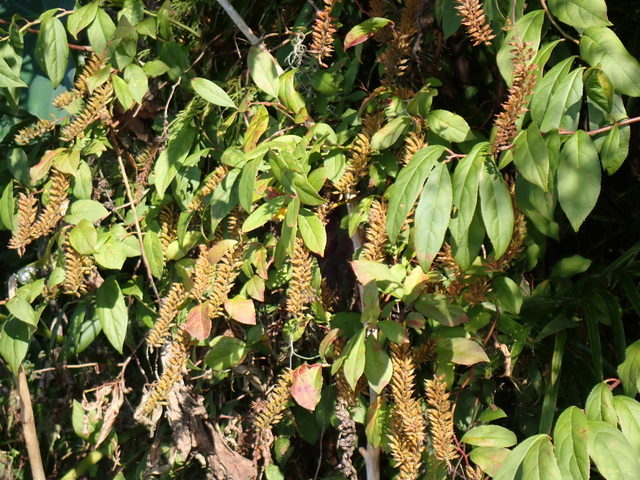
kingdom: Plantae
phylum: Tracheophyta
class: Magnoliopsida
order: Saxifragales
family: Iteaceae
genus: Itea
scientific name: Itea virginica
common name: Sweetspire
